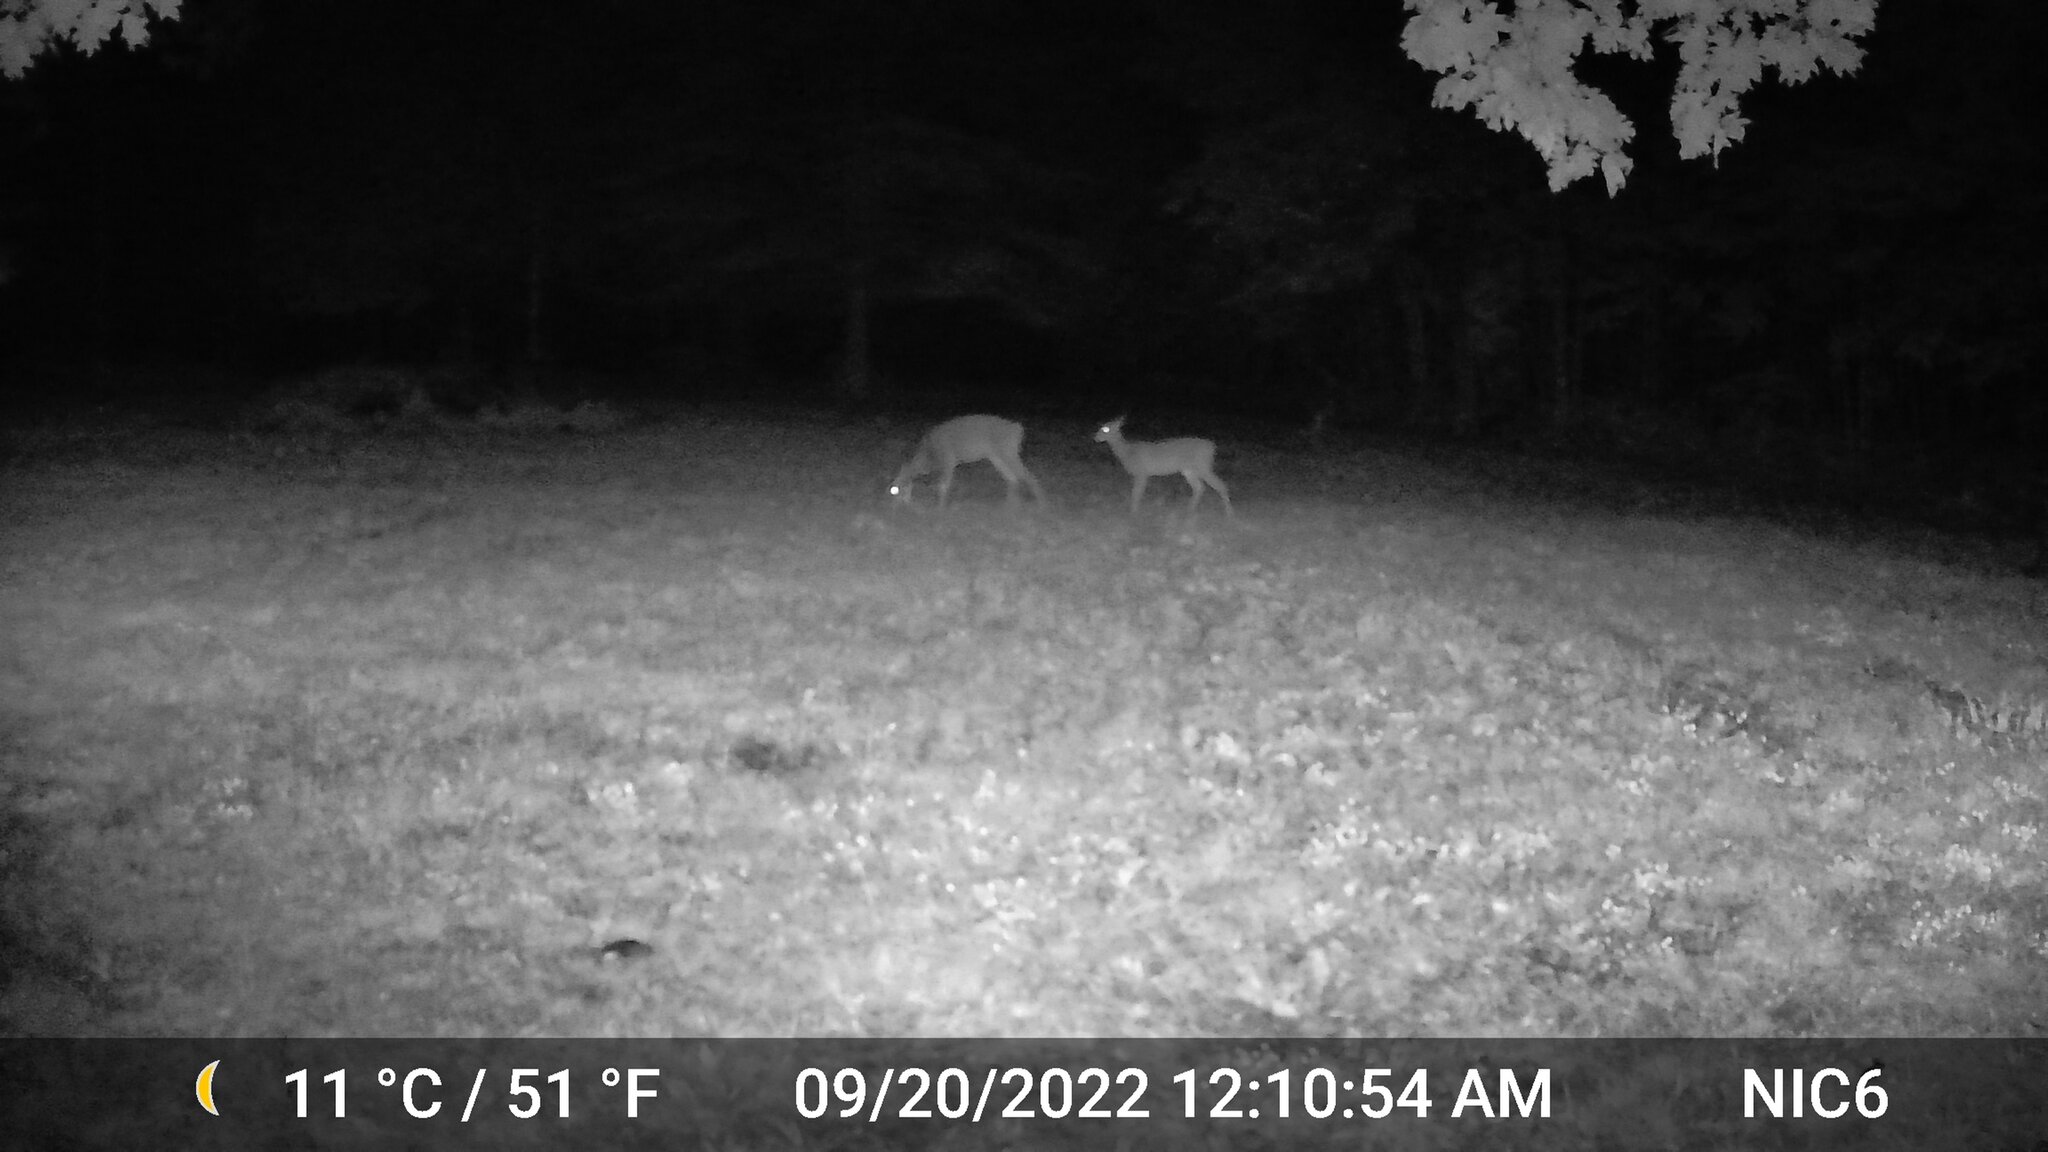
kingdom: Animalia
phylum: Chordata
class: Mammalia
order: Artiodactyla
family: Cervidae
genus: Odocoileus
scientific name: Odocoileus virginianus
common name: White-tailed deer
